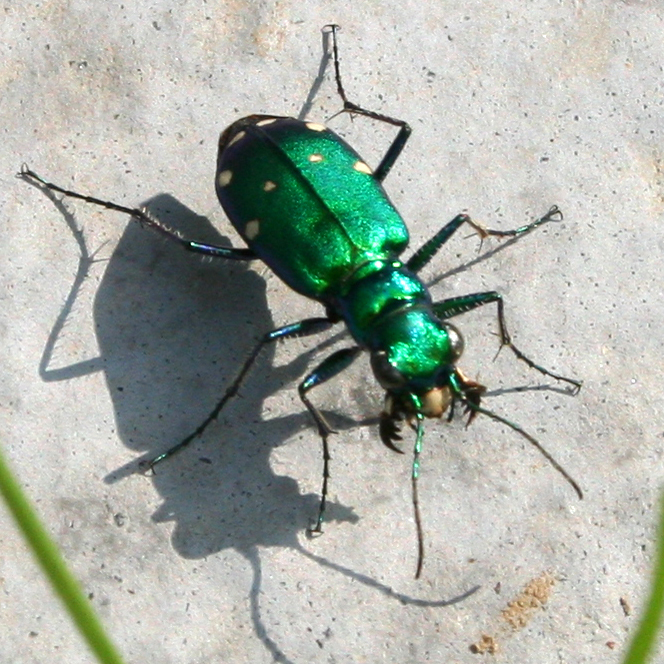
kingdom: Animalia
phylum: Arthropoda
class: Insecta
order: Coleoptera
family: Carabidae
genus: Cicindela
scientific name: Cicindela sexguttata
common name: Six-spotted tiger beetle
